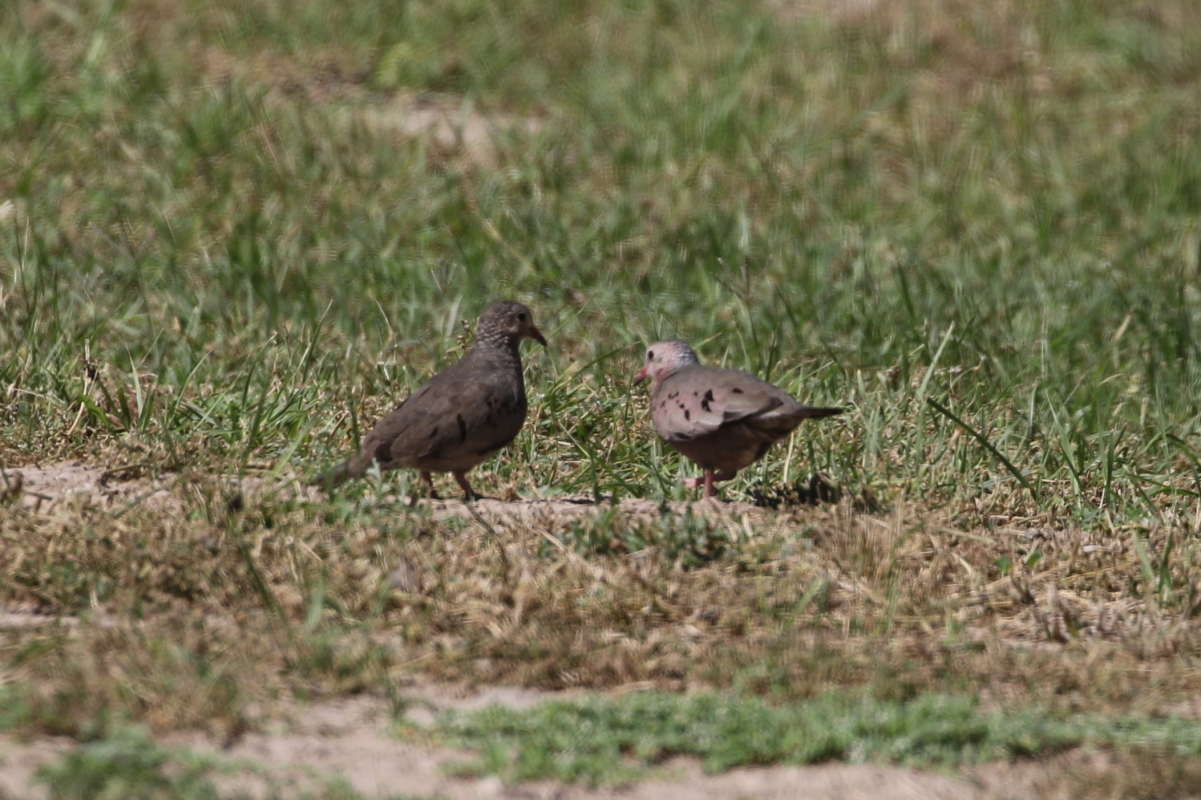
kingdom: Animalia
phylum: Chordata
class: Aves
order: Columbiformes
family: Columbidae
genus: Columbina
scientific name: Columbina passerina
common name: Common ground-dove
